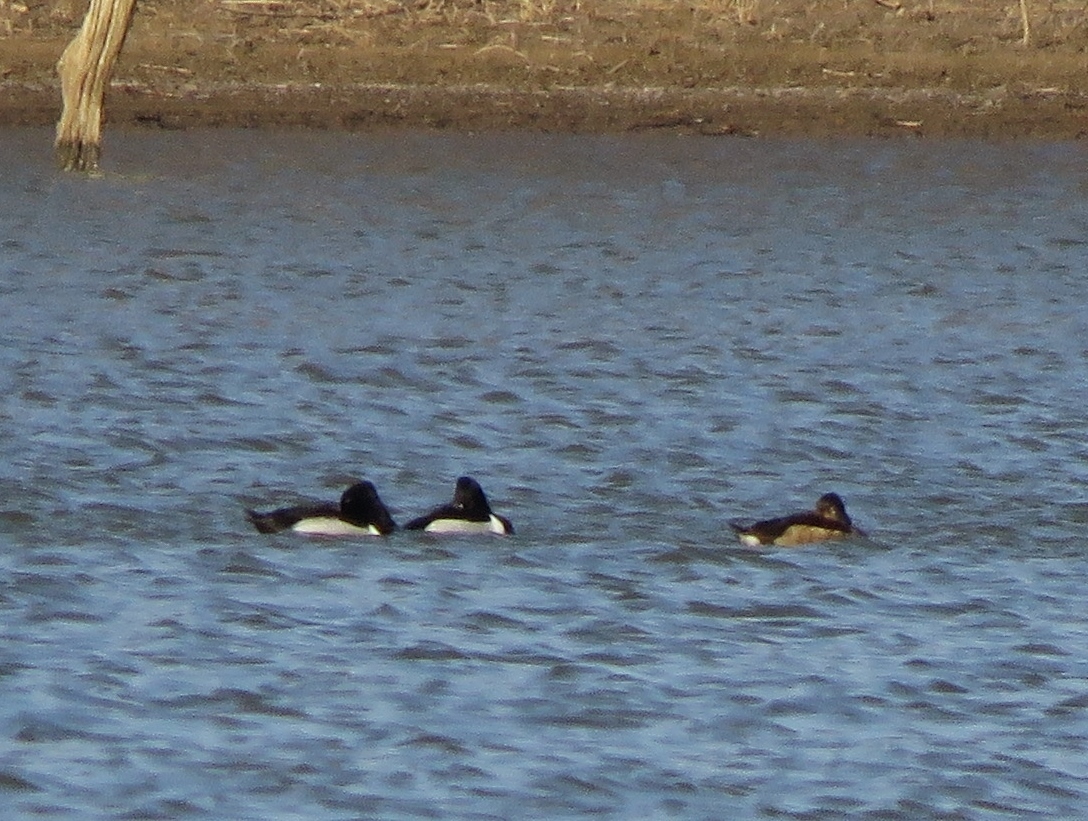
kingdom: Animalia
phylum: Chordata
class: Aves
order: Anseriformes
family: Anatidae
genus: Aythya
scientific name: Aythya collaris
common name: Ring-necked duck
